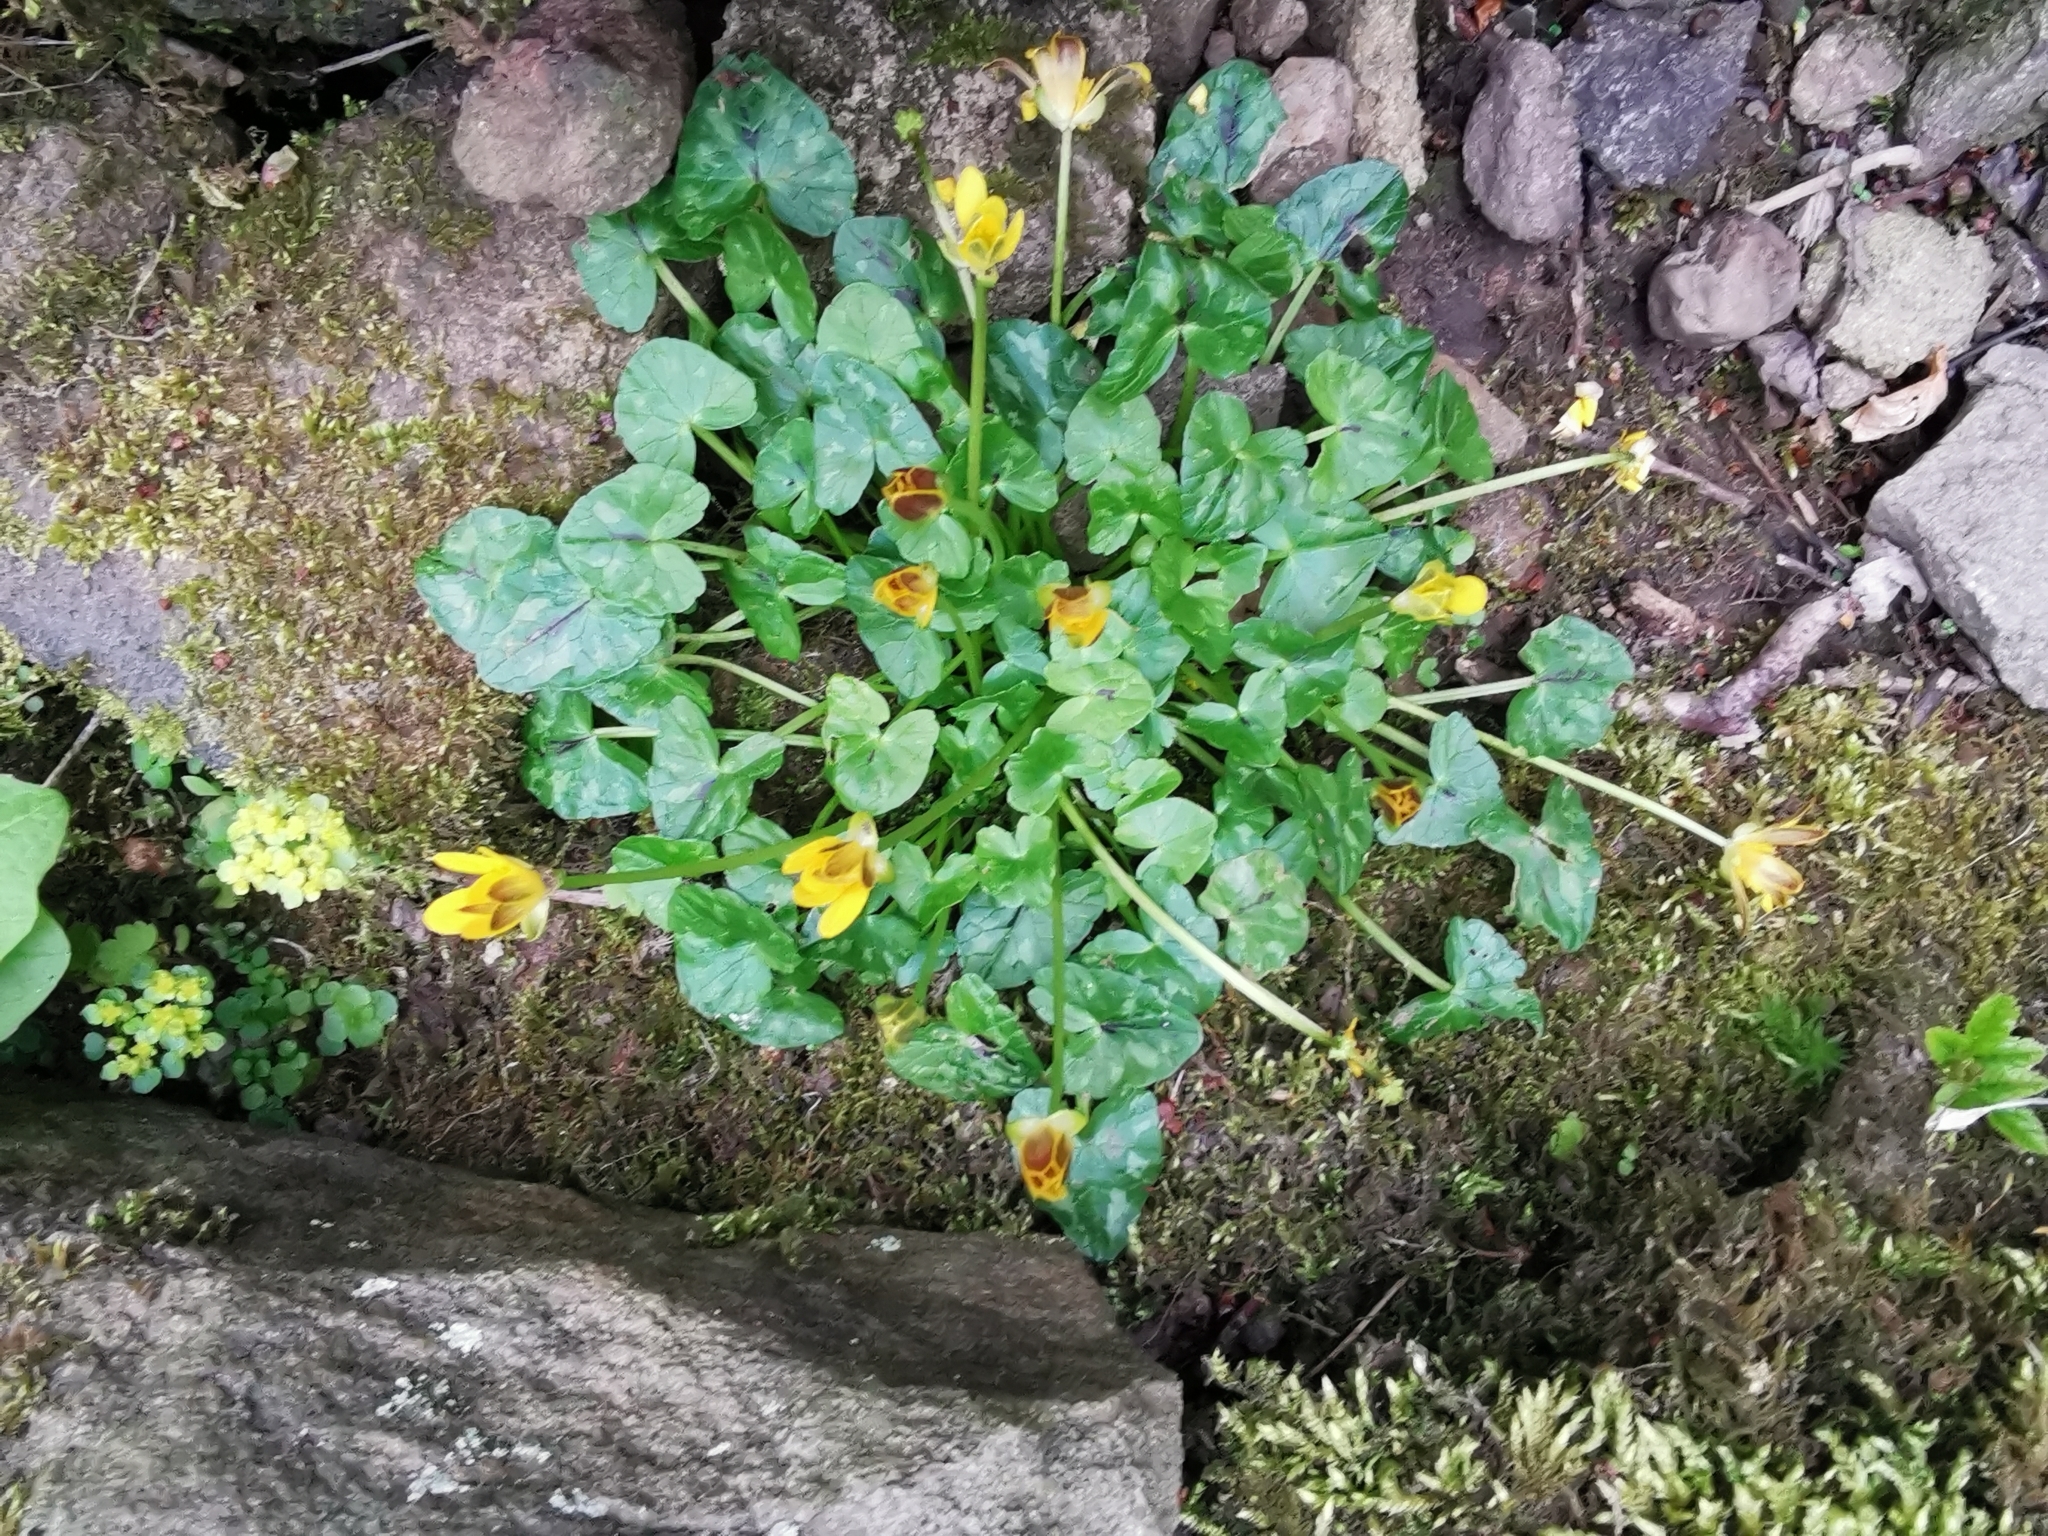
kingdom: Plantae
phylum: Tracheophyta
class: Magnoliopsida
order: Ranunculales
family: Ranunculaceae
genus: Ficaria
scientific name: Ficaria verna
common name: Lesser celandine
